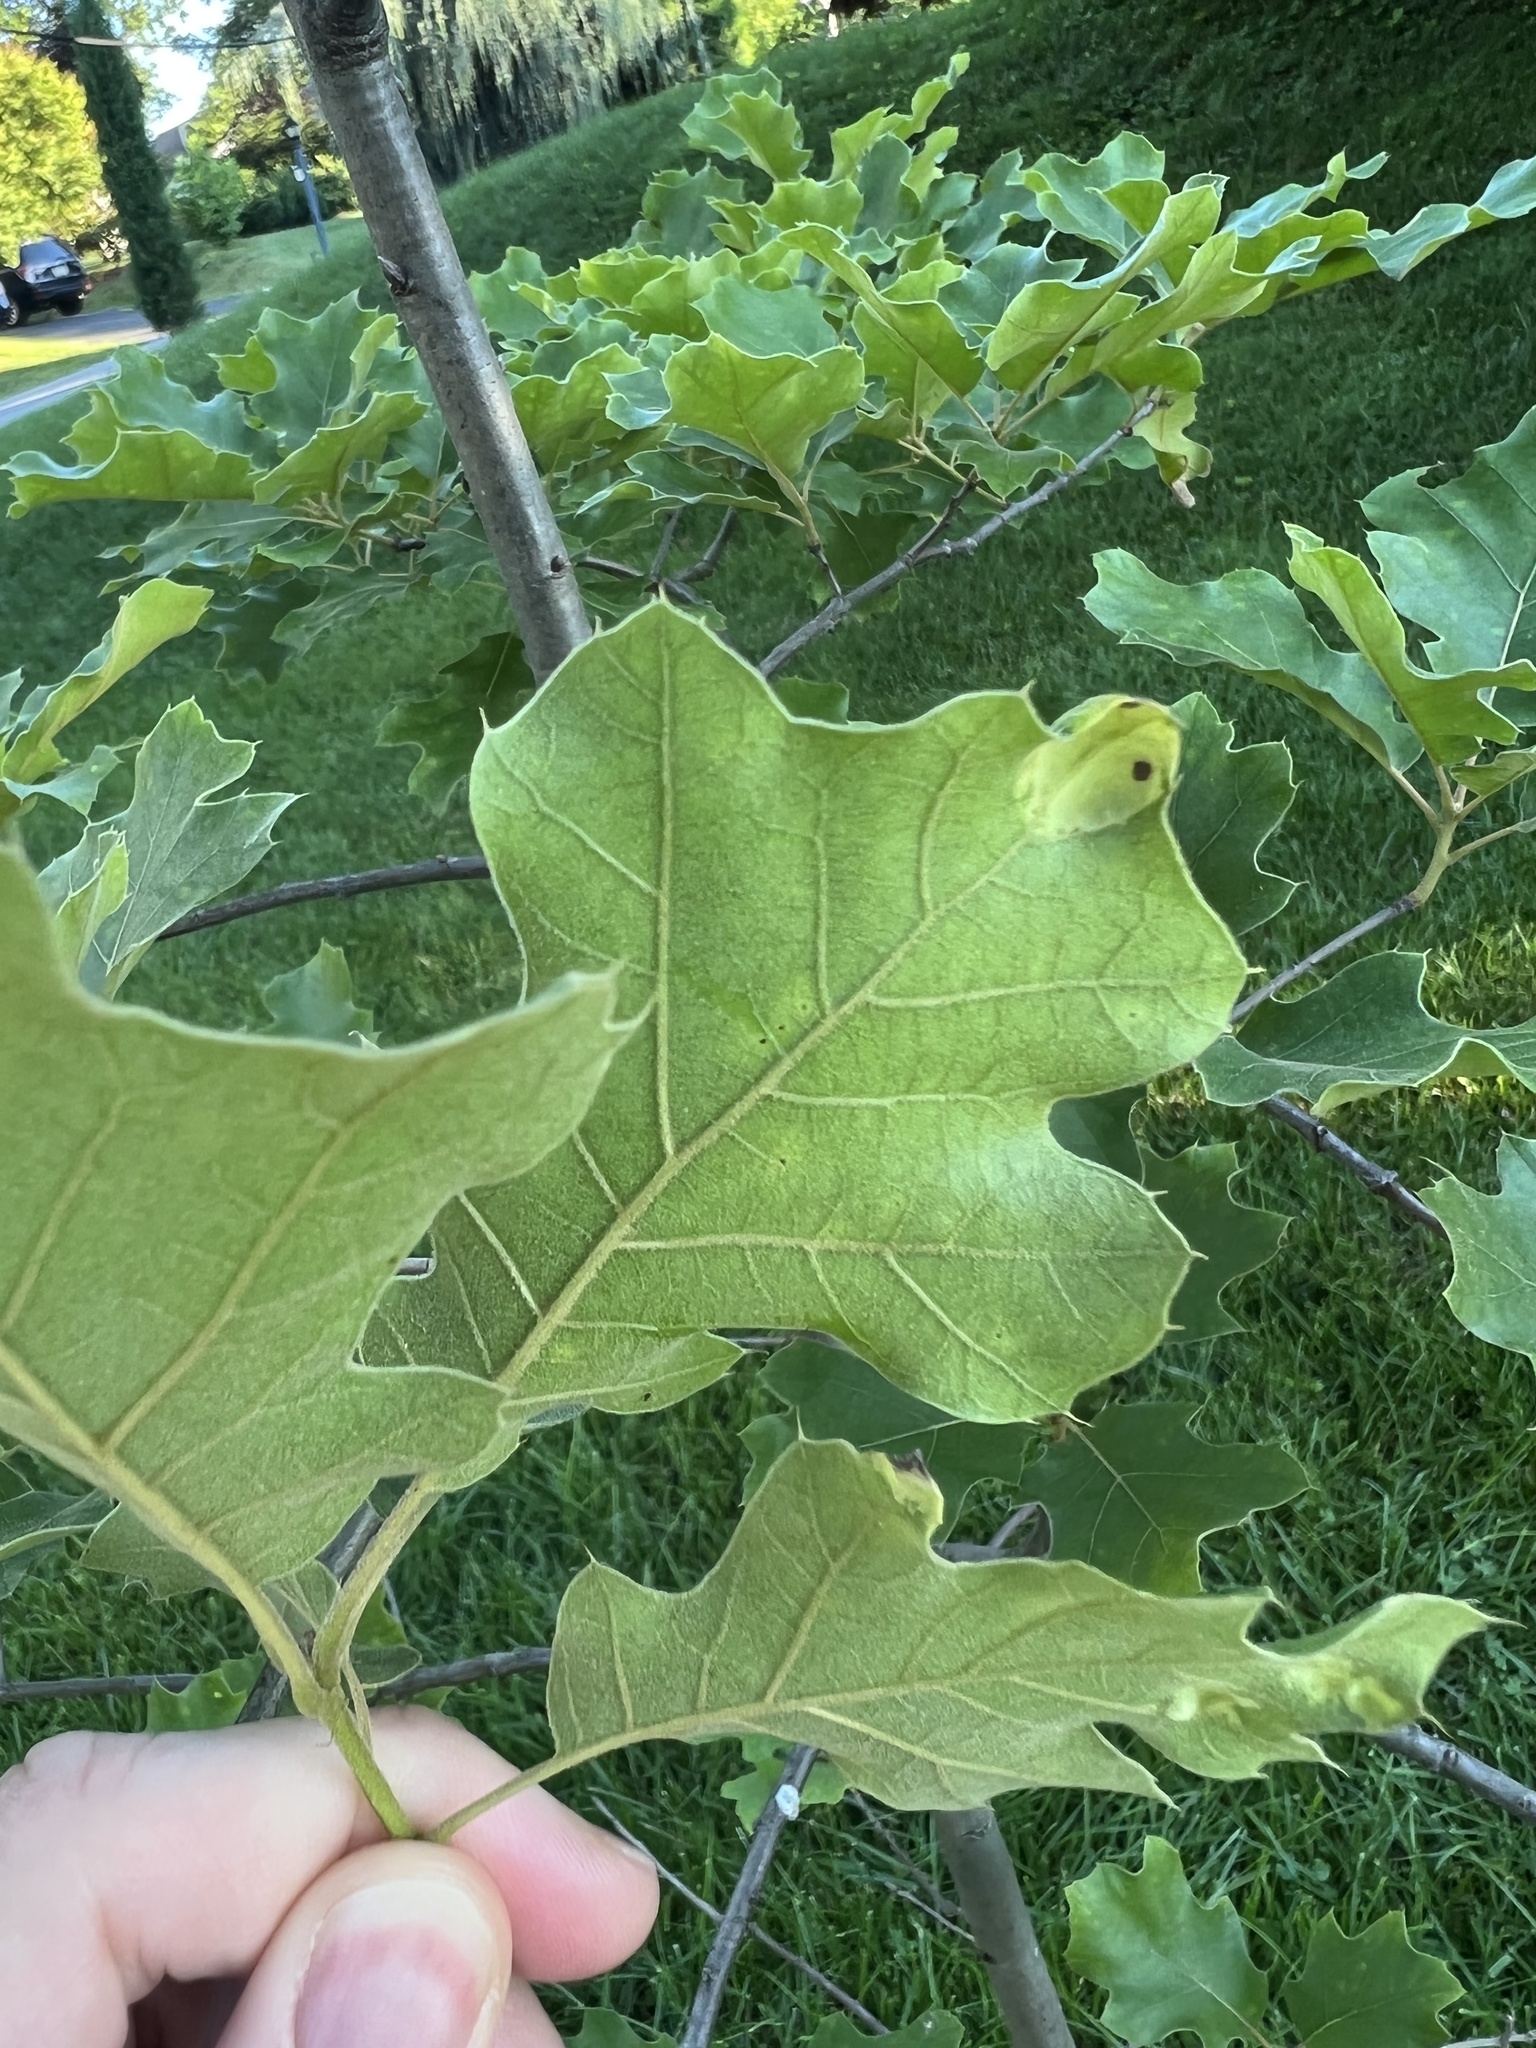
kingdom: Fungi
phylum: Ascomycota
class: Taphrinomycetes
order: Taphrinales
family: Taphrinaceae
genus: Taphrina
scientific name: Taphrina caerulescens
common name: Oak leaf blister
